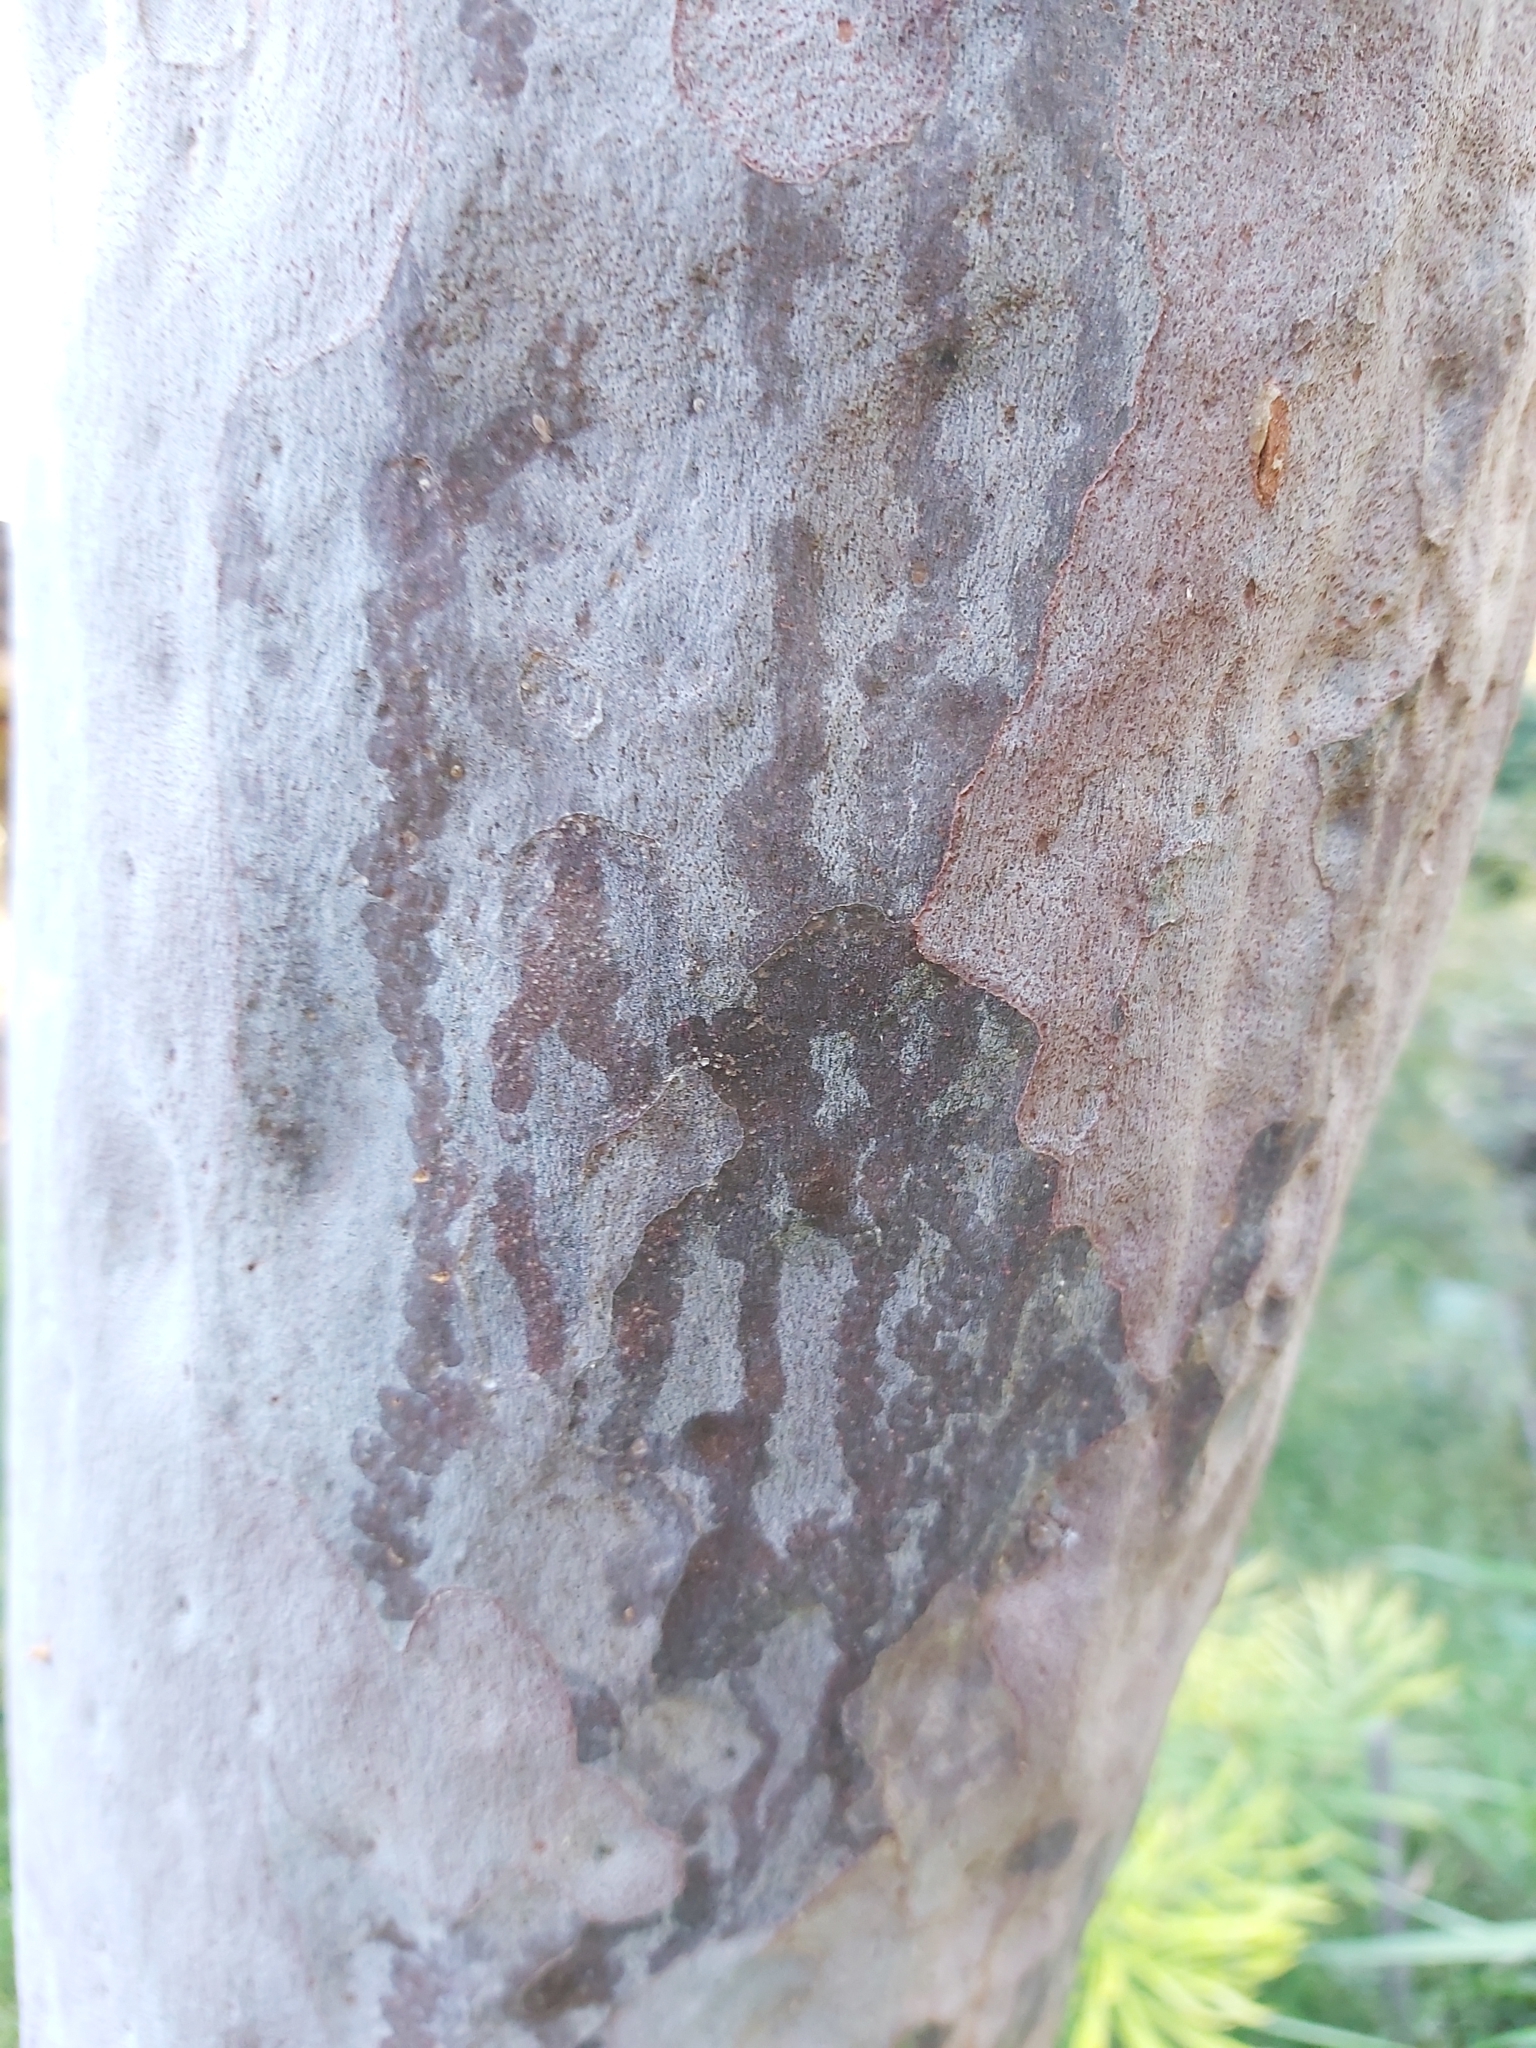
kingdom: Animalia
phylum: Mollusca
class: Gastropoda
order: Stylommatophora
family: Athoracophoridae
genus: Triboniophorus
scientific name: Triboniophorus graeffei
